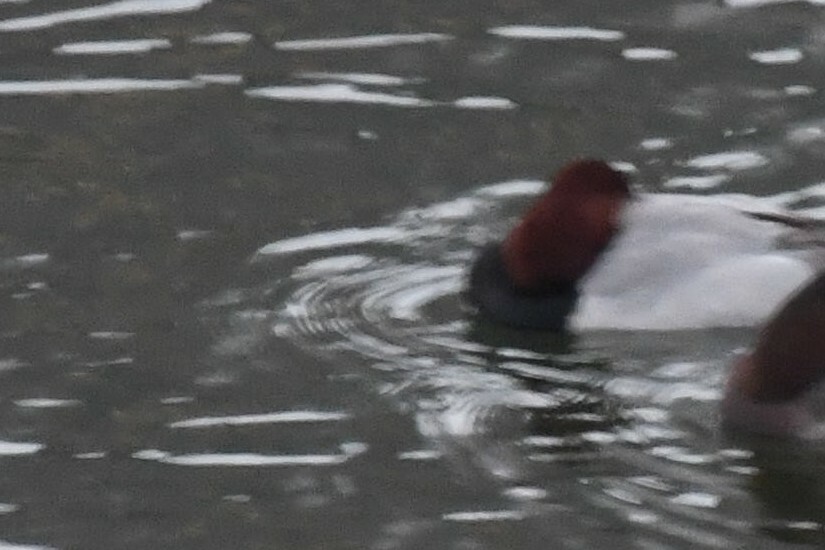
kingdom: Animalia
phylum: Chordata
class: Aves
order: Anseriformes
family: Anatidae
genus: Aythya
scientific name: Aythya ferina
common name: Common pochard
